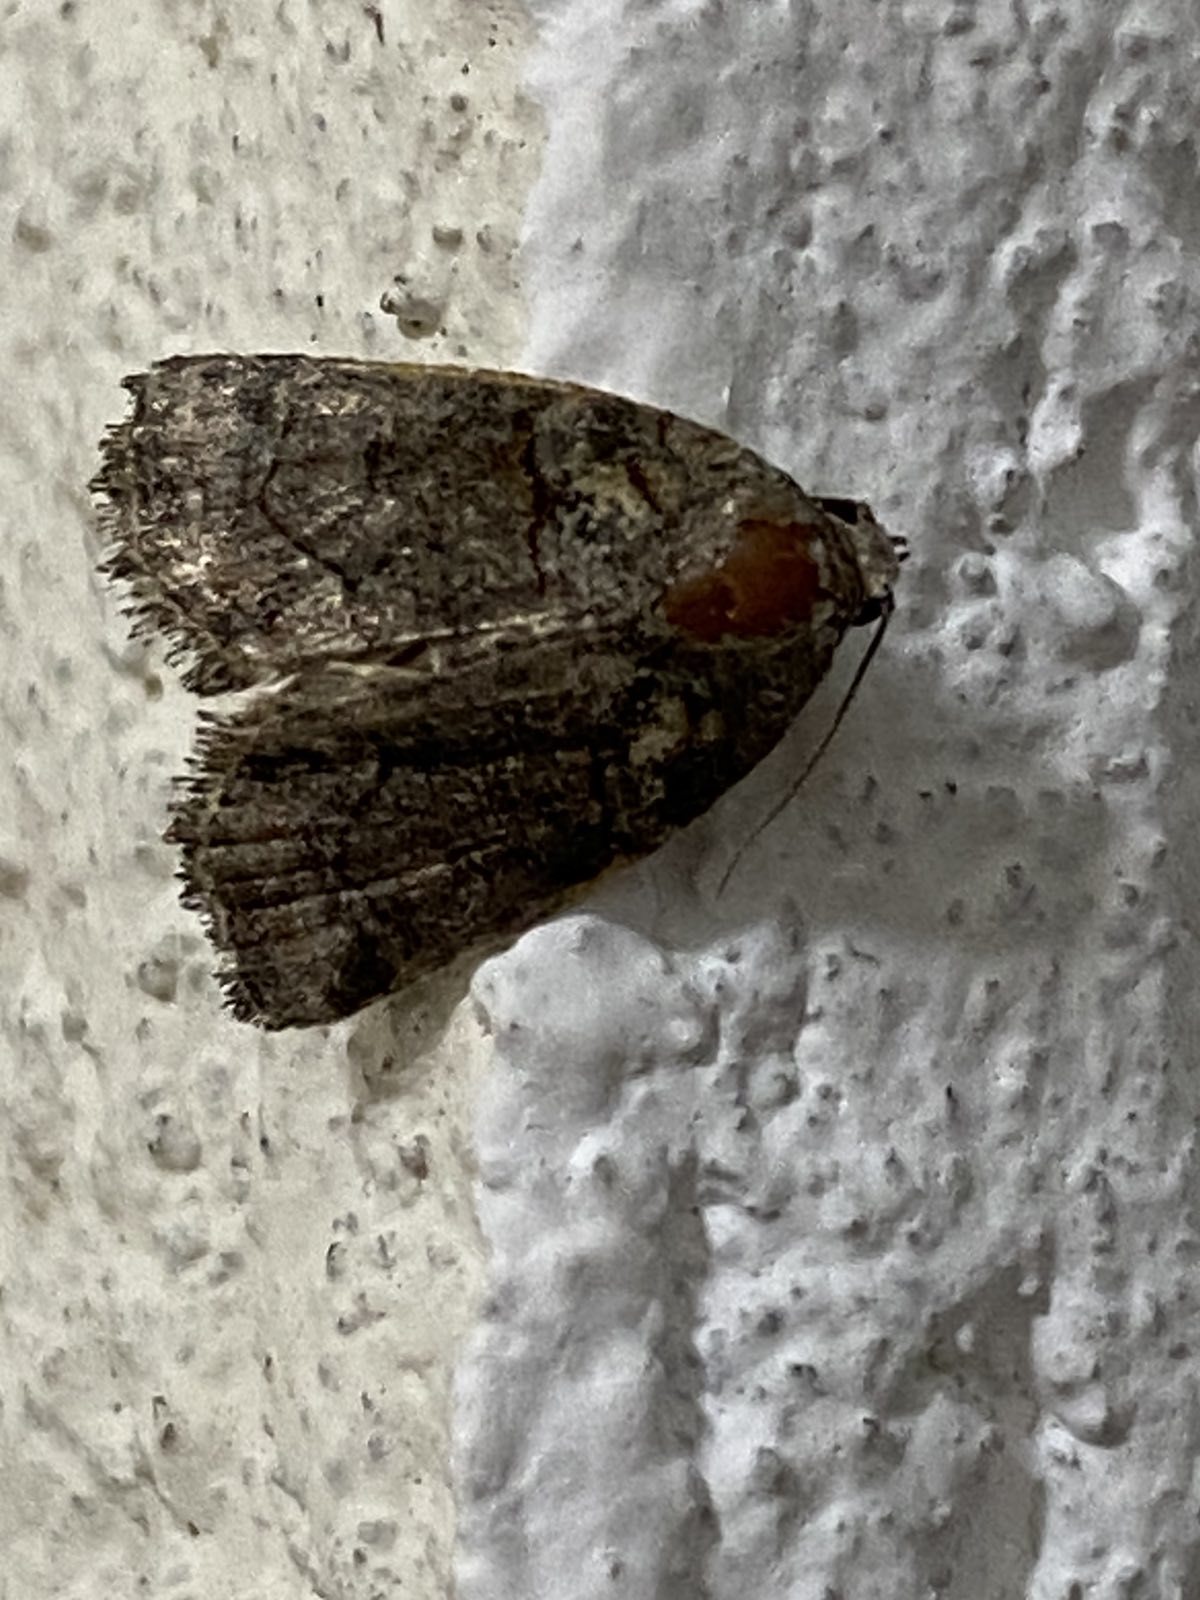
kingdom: Animalia
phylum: Arthropoda
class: Insecta
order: Lepidoptera
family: Noctuidae
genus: Cryphia
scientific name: Cryphia algae
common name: Tree-lichen beauty
